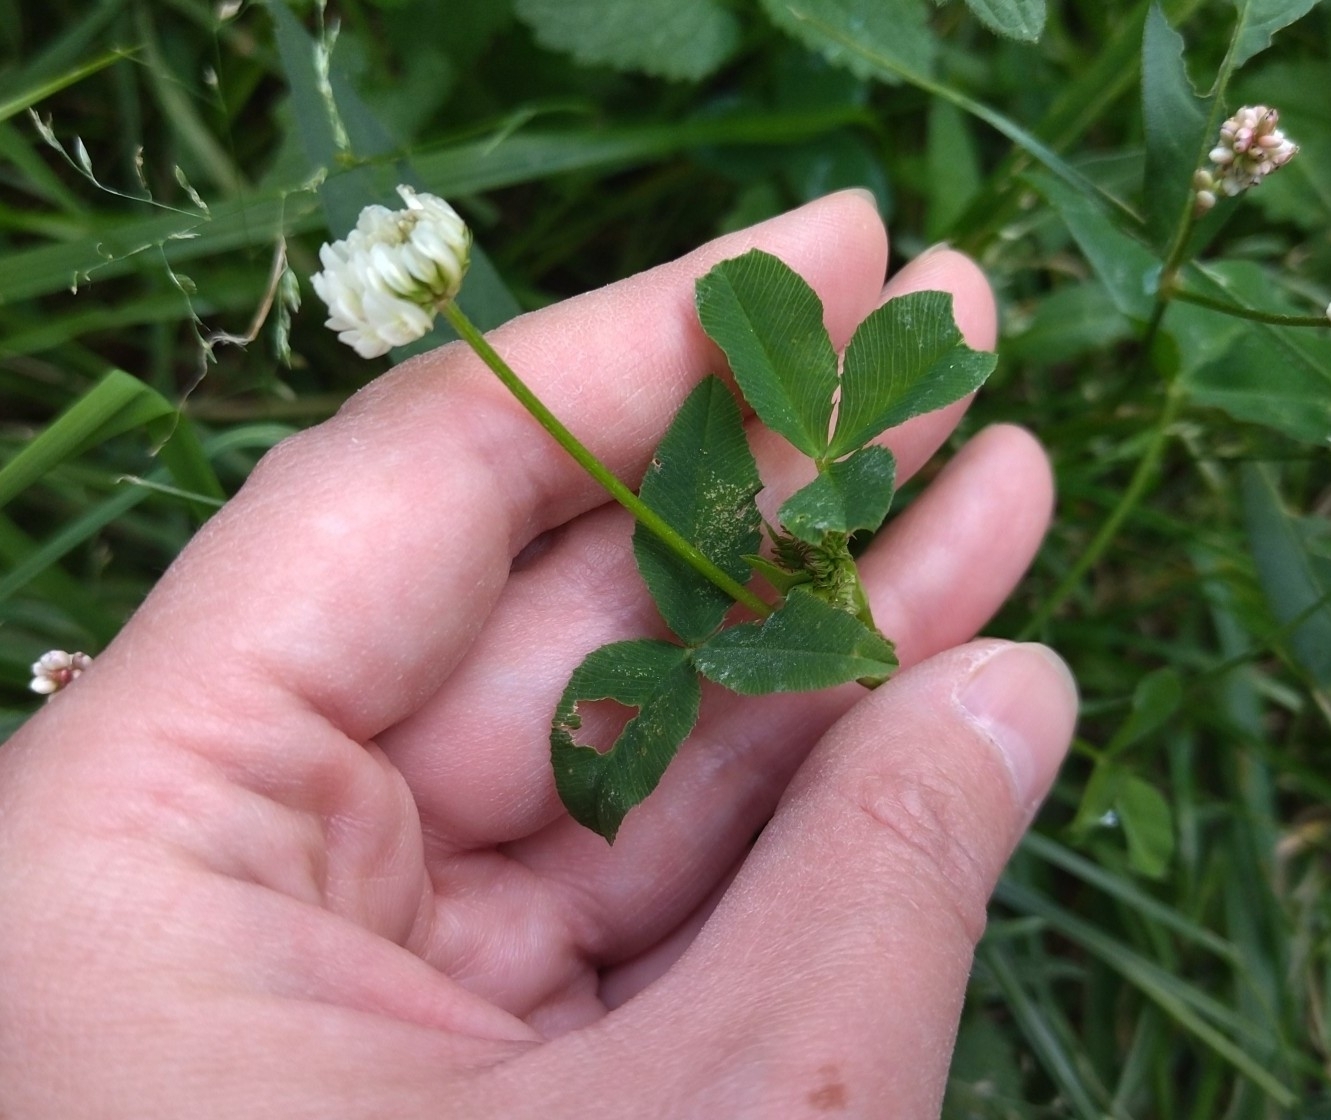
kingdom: Plantae
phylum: Tracheophyta
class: Magnoliopsida
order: Fabales
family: Fabaceae
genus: Trifolium
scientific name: Trifolium repens
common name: White clover
